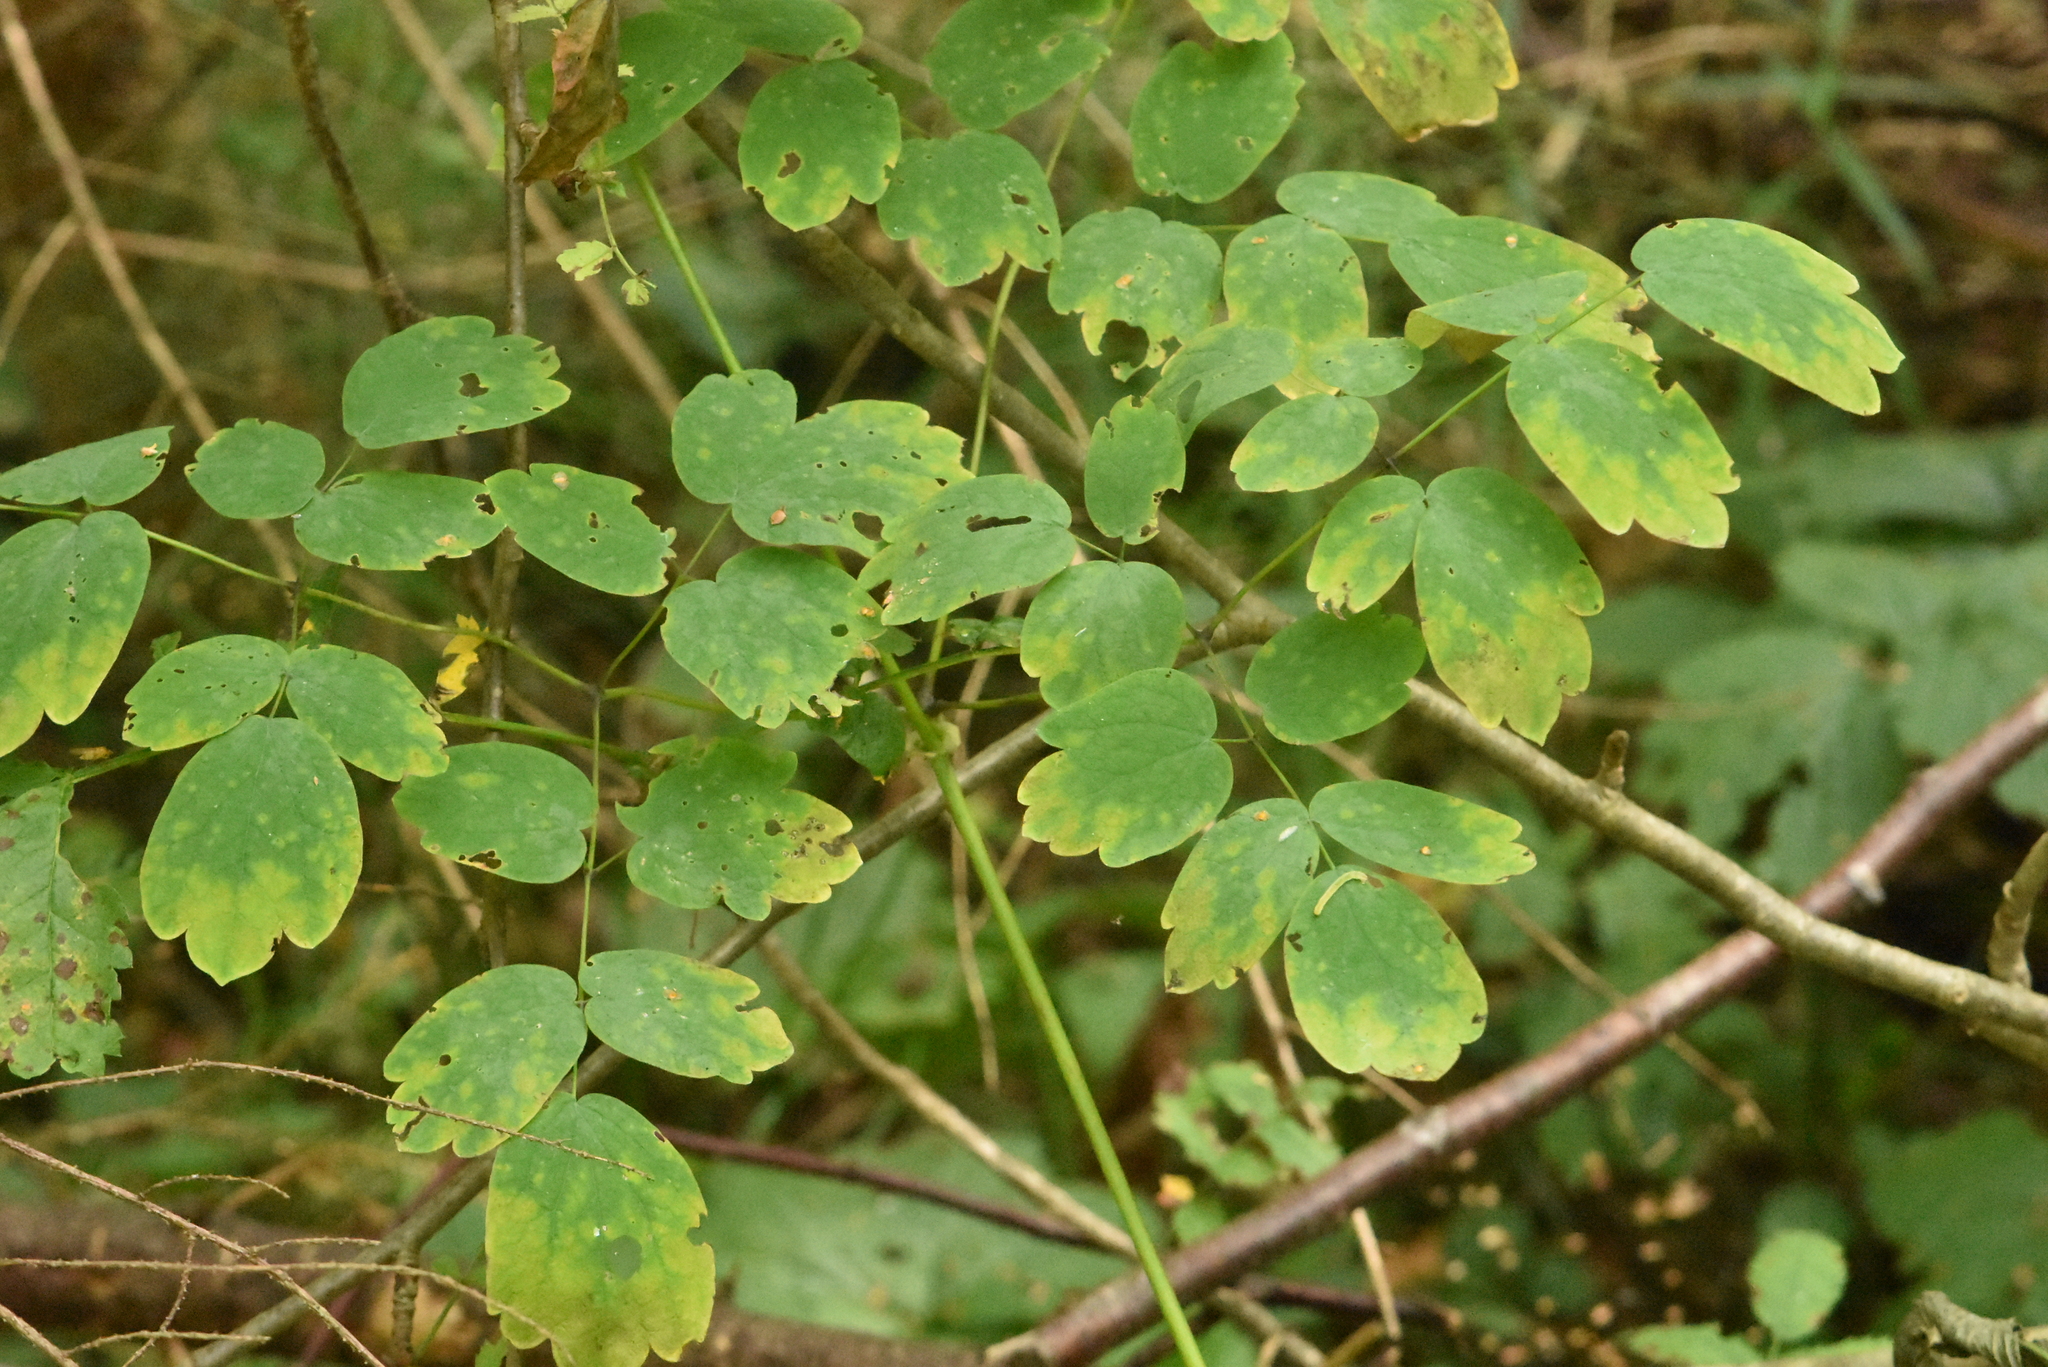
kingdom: Plantae
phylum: Tracheophyta
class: Magnoliopsida
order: Ranunculales
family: Ranunculaceae
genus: Thalictrum
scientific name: Thalictrum aquilegiifolium
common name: French meadow-rue
